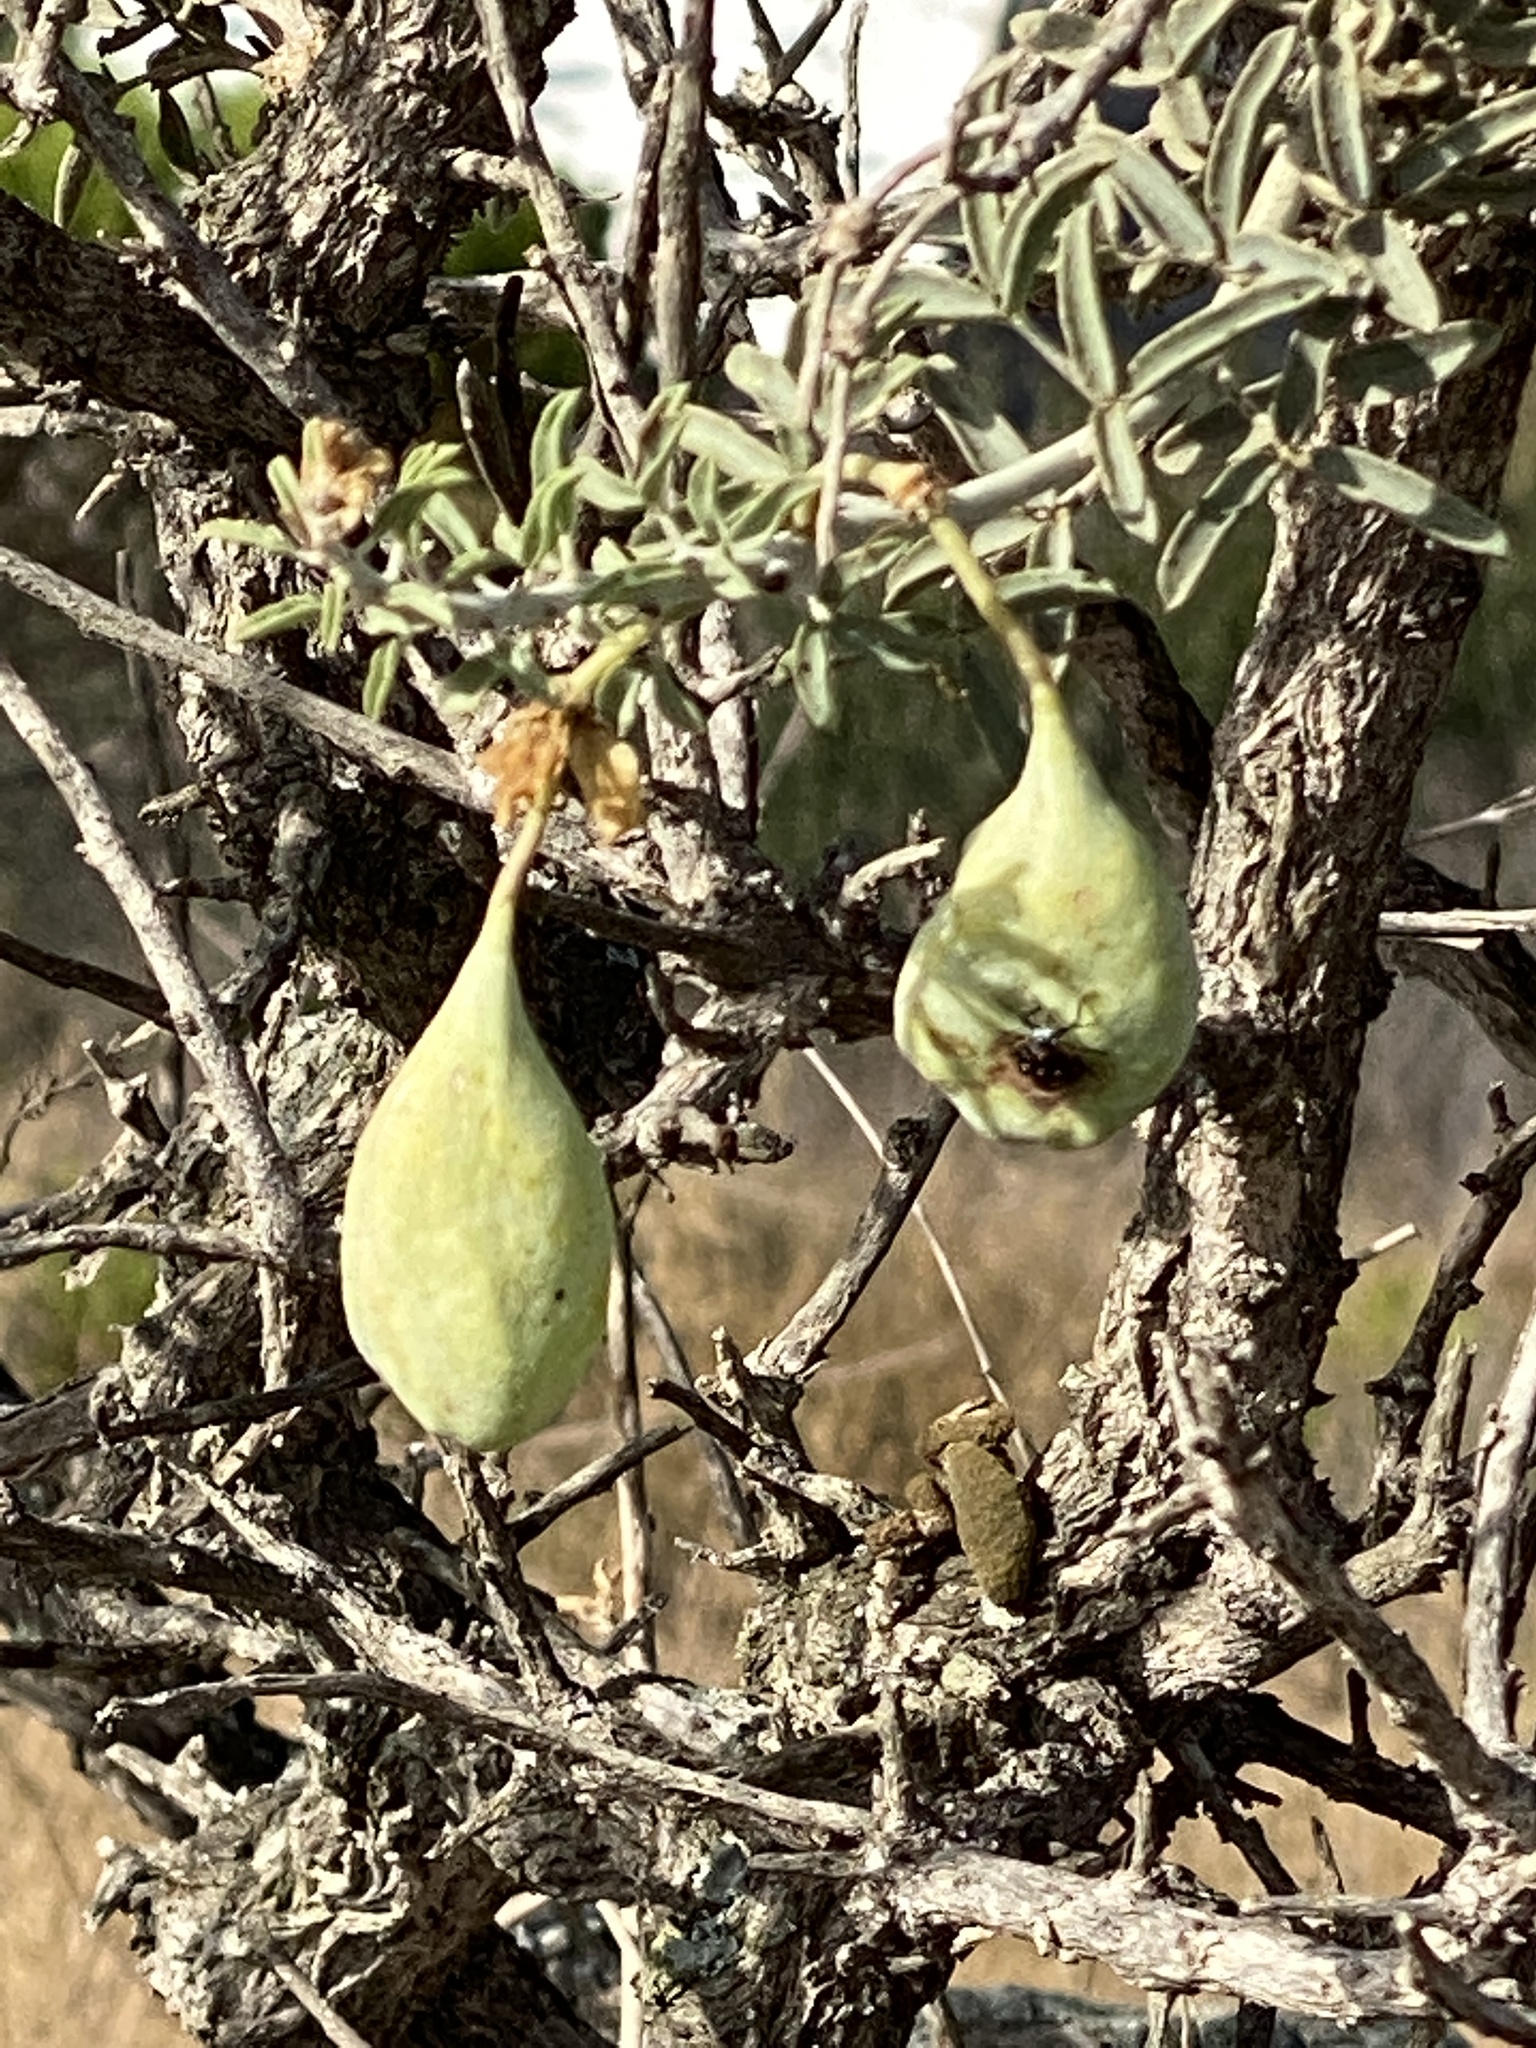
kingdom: Plantae
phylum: Tracheophyta
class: Magnoliopsida
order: Brassicales
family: Cleomaceae
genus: Cleomella
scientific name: Cleomella arborea
